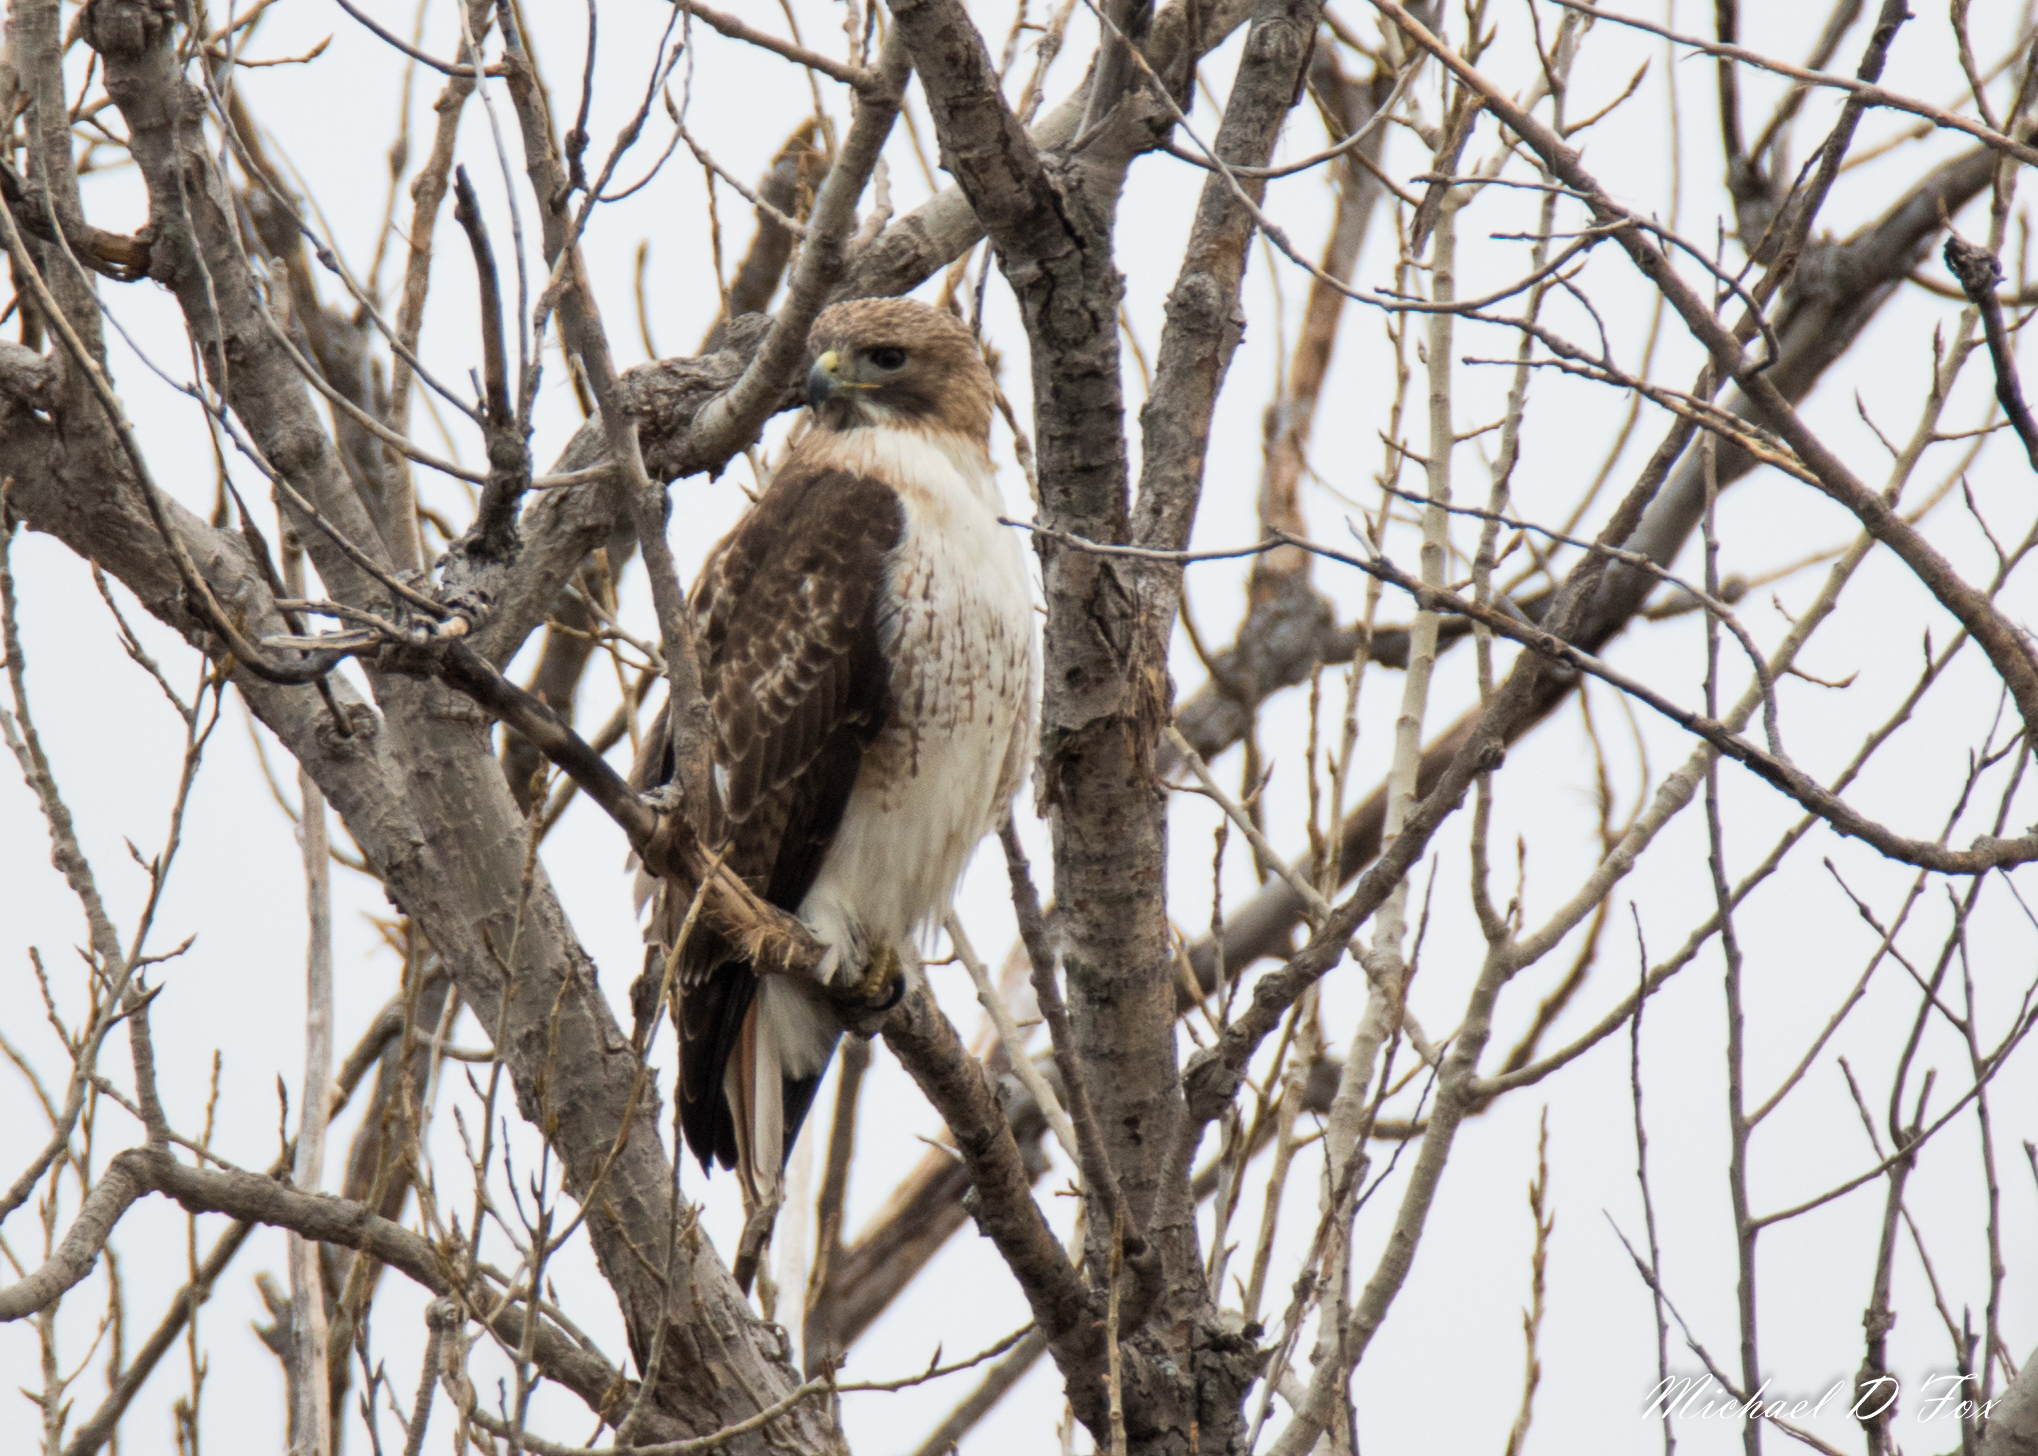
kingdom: Animalia
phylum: Chordata
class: Aves
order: Accipitriformes
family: Accipitridae
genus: Buteo
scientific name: Buteo jamaicensis
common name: Red-tailed hawk
